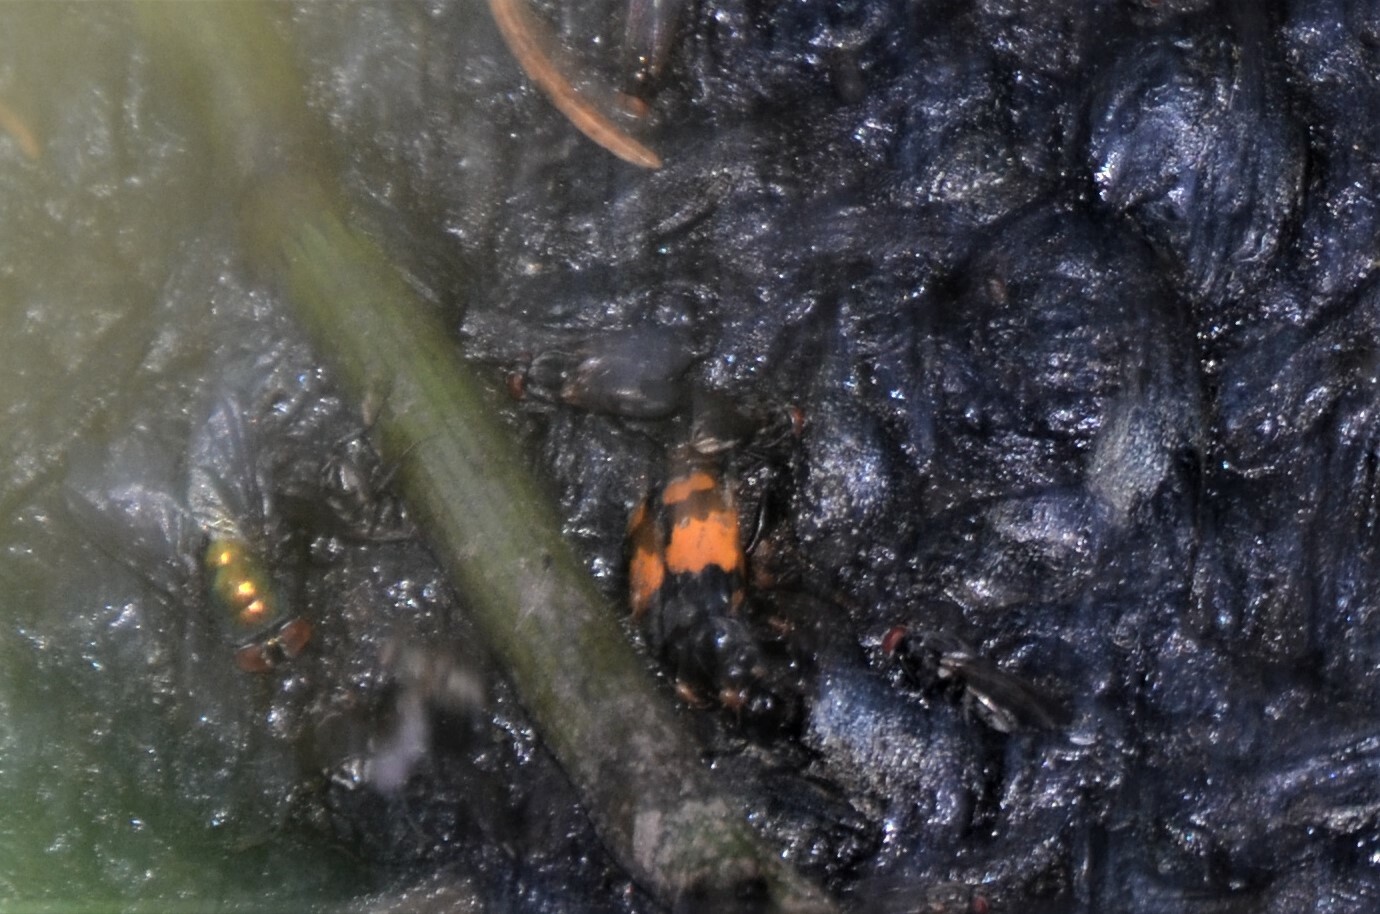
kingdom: Animalia
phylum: Arthropoda
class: Insecta
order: Coleoptera
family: Staphylinidae
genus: Nicrophorus
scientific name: Nicrophorus vespilloides
